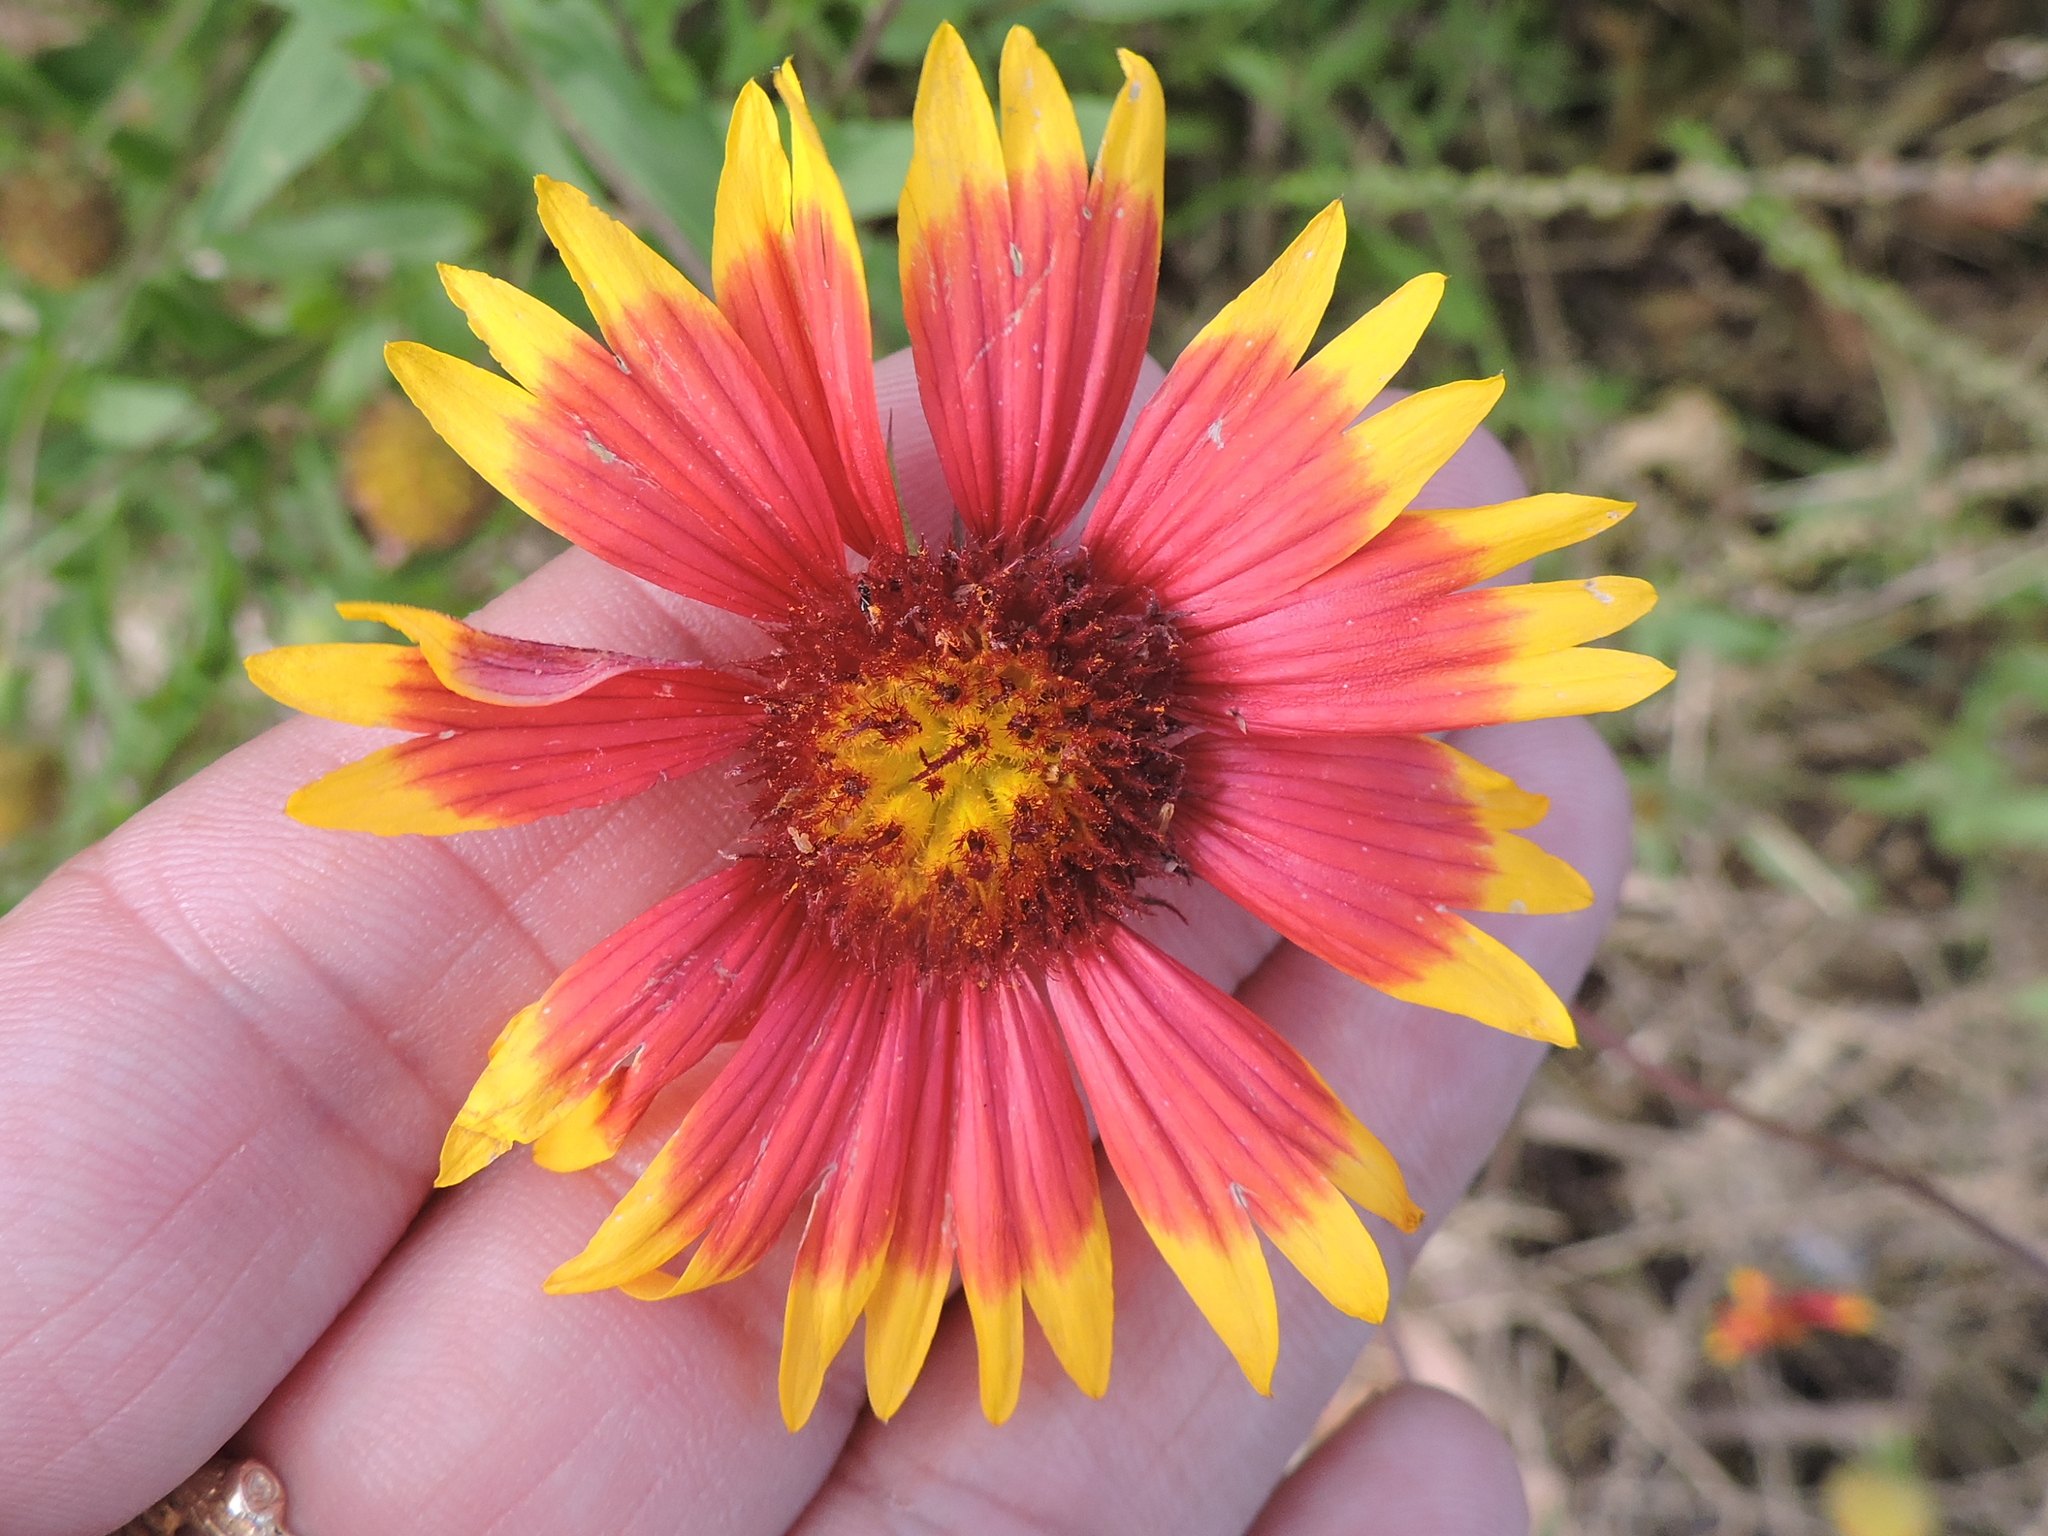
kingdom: Plantae
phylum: Tracheophyta
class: Magnoliopsida
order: Asterales
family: Asteraceae
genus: Gaillardia
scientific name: Gaillardia pulchella
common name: Firewheel
